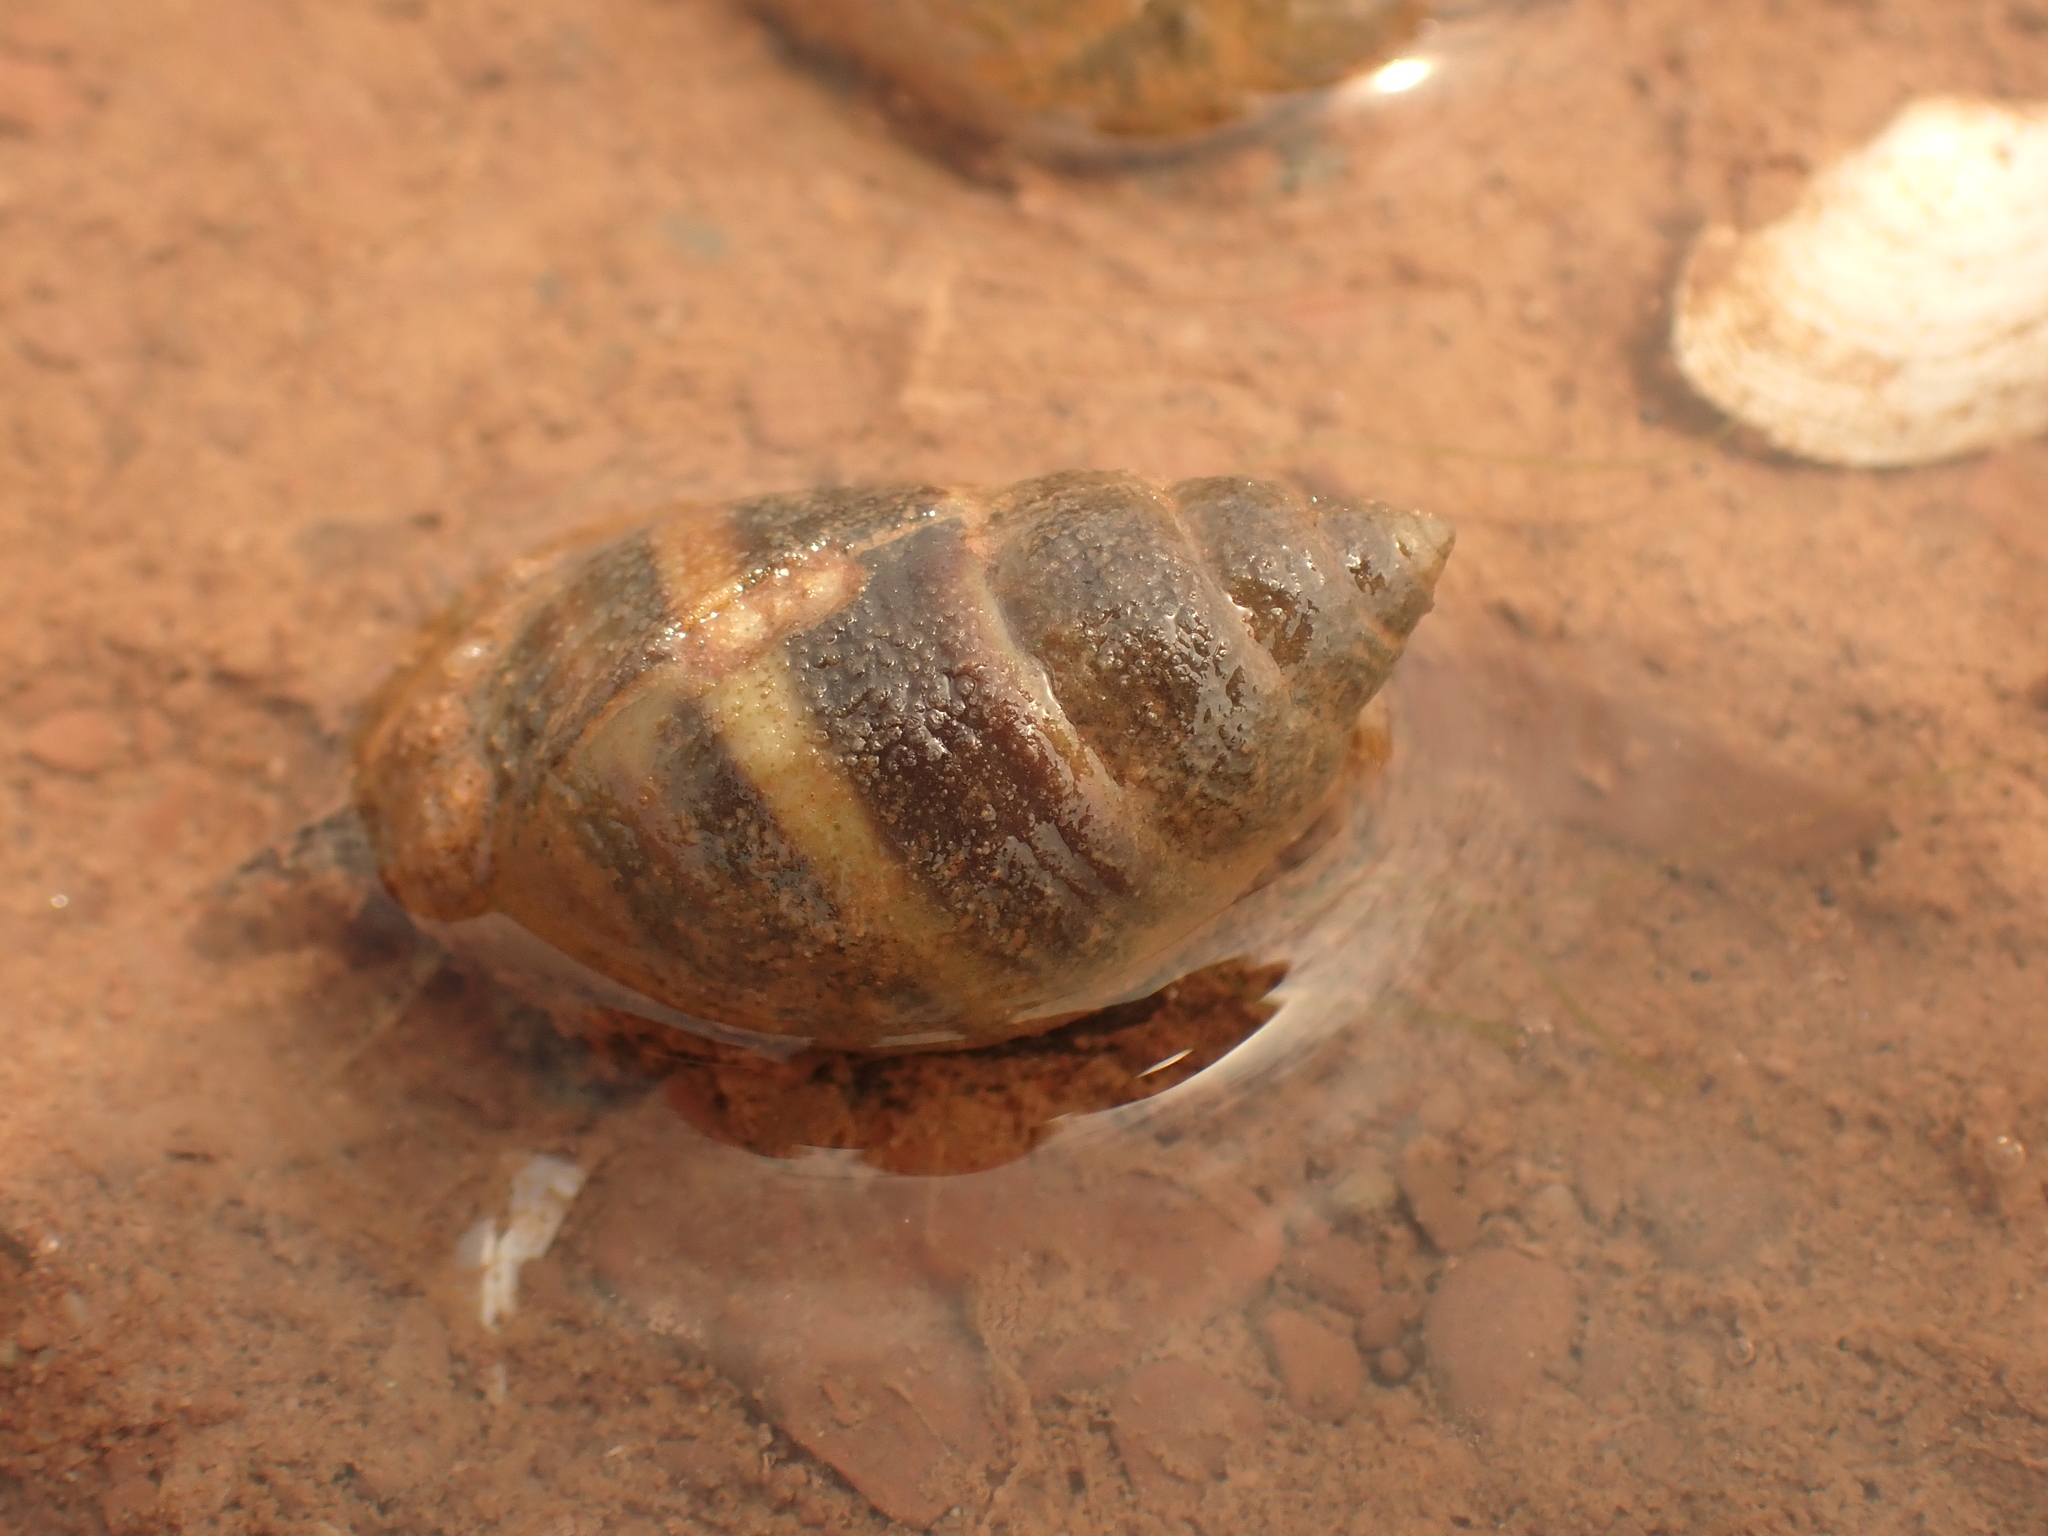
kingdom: Animalia
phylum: Mollusca
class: Gastropoda
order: Neogastropoda
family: Nassariidae
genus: Ilyanassa
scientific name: Ilyanassa obsoleta
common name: Eastern mudsnail
